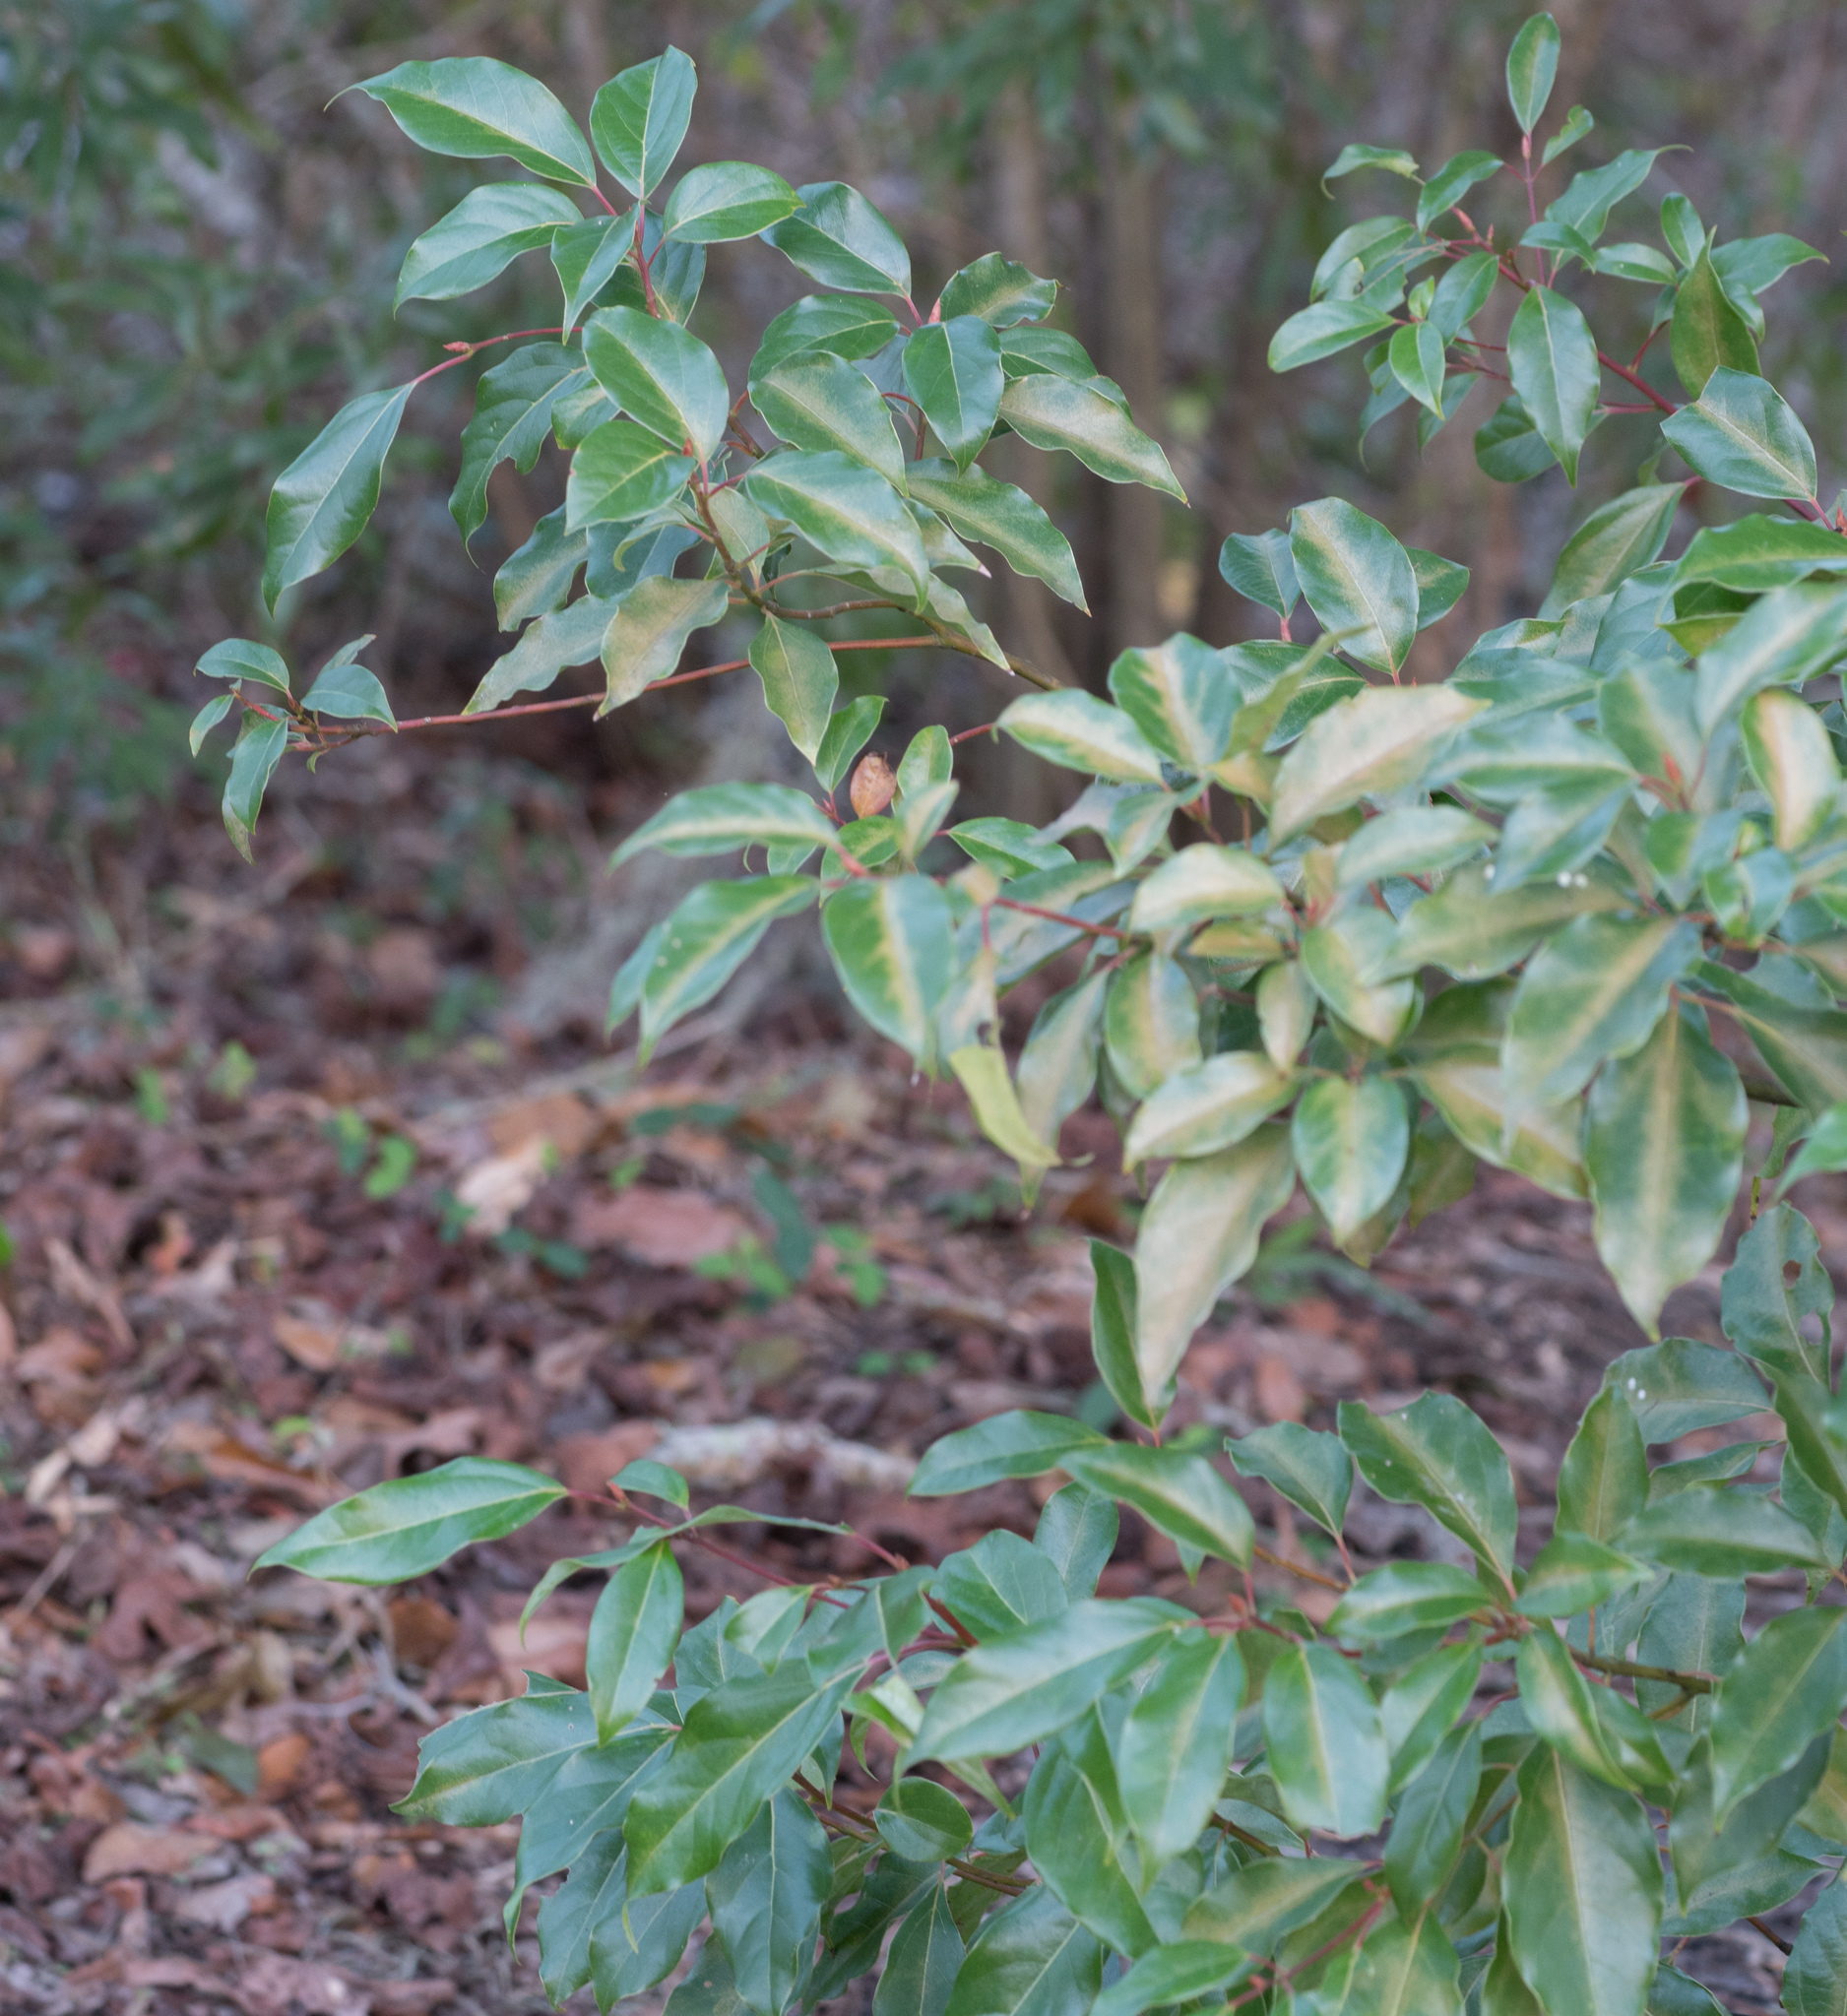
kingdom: Plantae
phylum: Tracheophyta
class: Magnoliopsida
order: Laurales
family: Lauraceae
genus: Cinnamomum
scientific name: Cinnamomum camphora
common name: Camphortree
